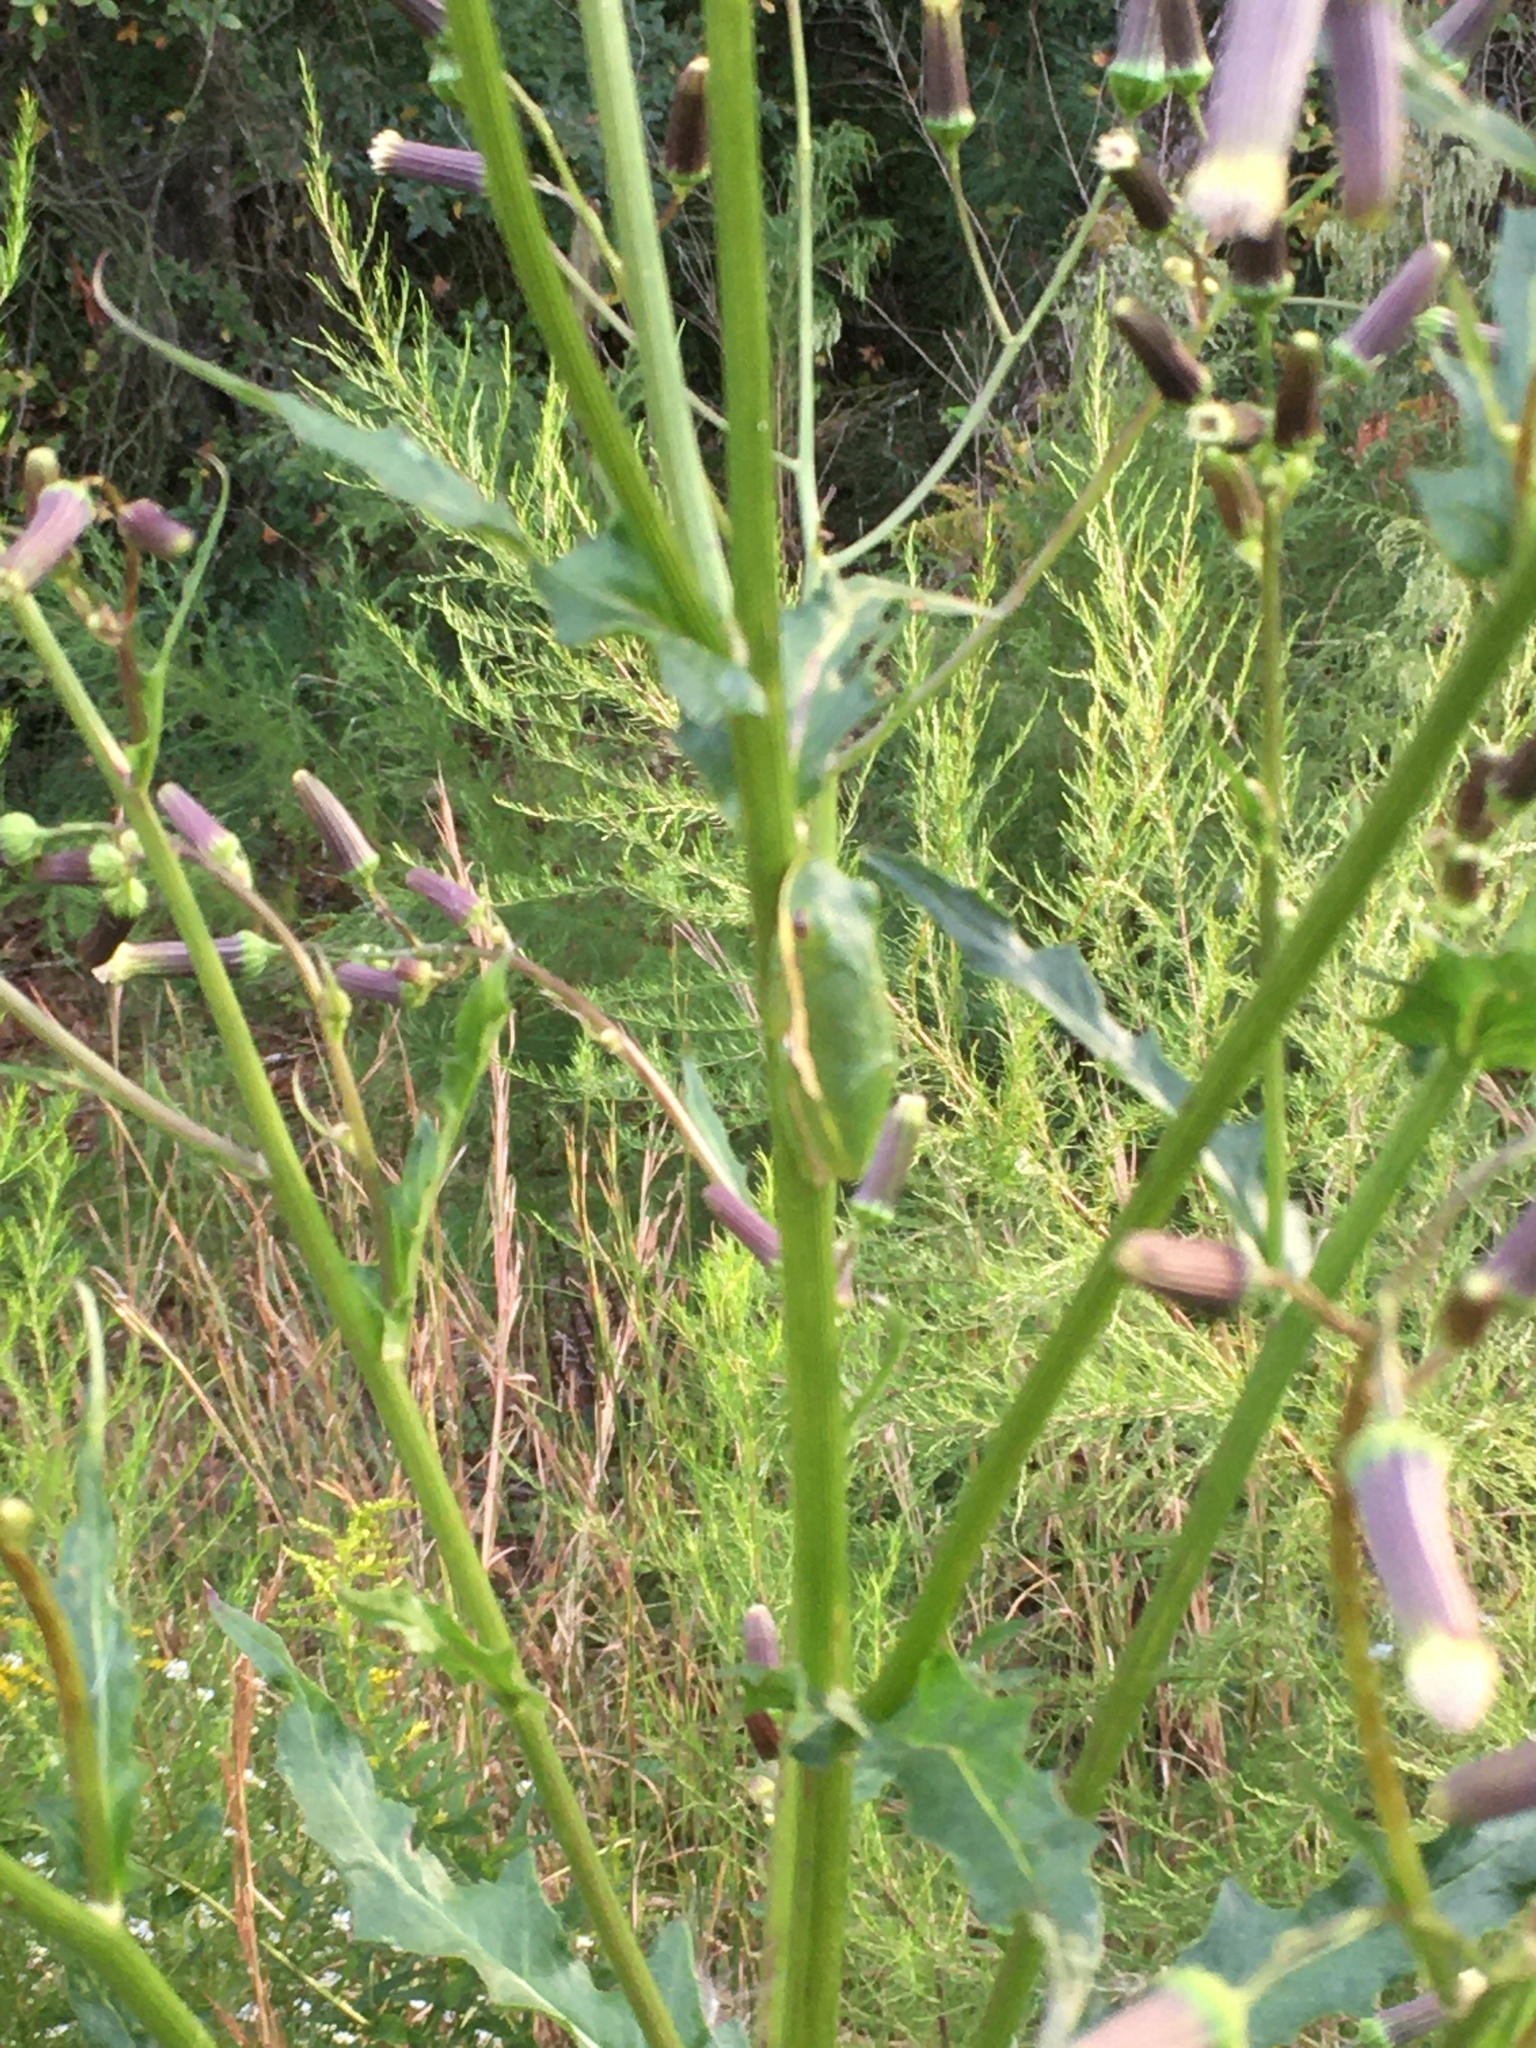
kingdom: Animalia
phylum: Chordata
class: Amphibia
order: Anura
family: Hylidae
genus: Dryophytes
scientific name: Dryophytes cinereus
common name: Green treefrog
